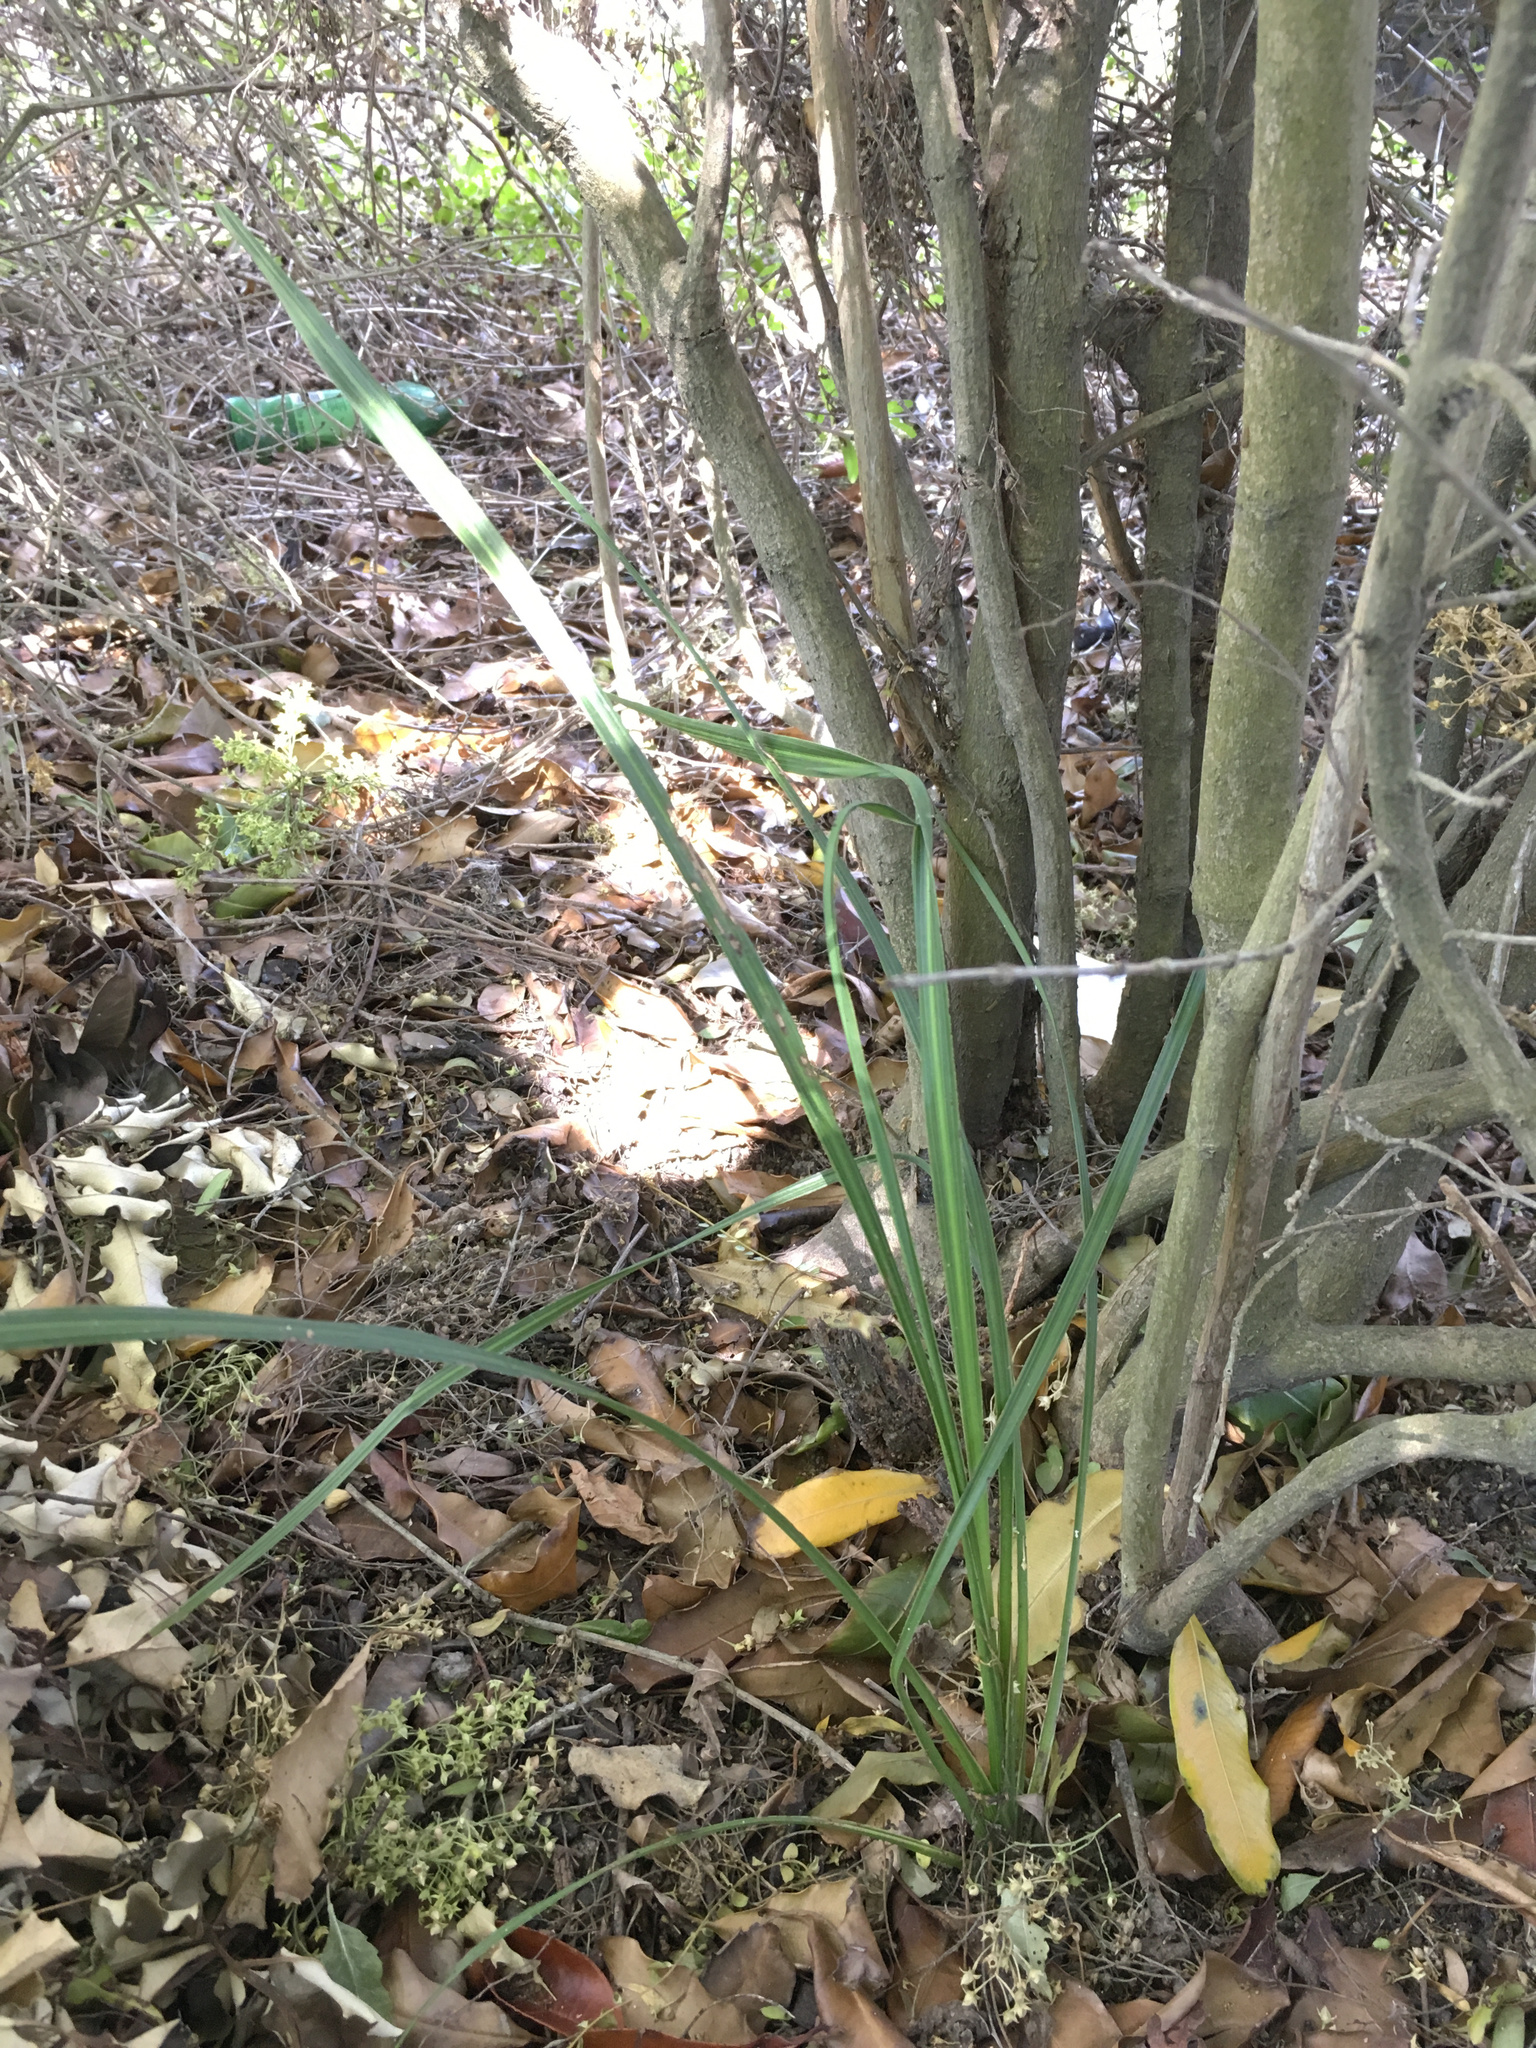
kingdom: Plantae
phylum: Tracheophyta
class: Liliopsida
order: Asparagales
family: Asparagaceae
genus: Cordyline
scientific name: Cordyline australis
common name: Cabbage-palm
